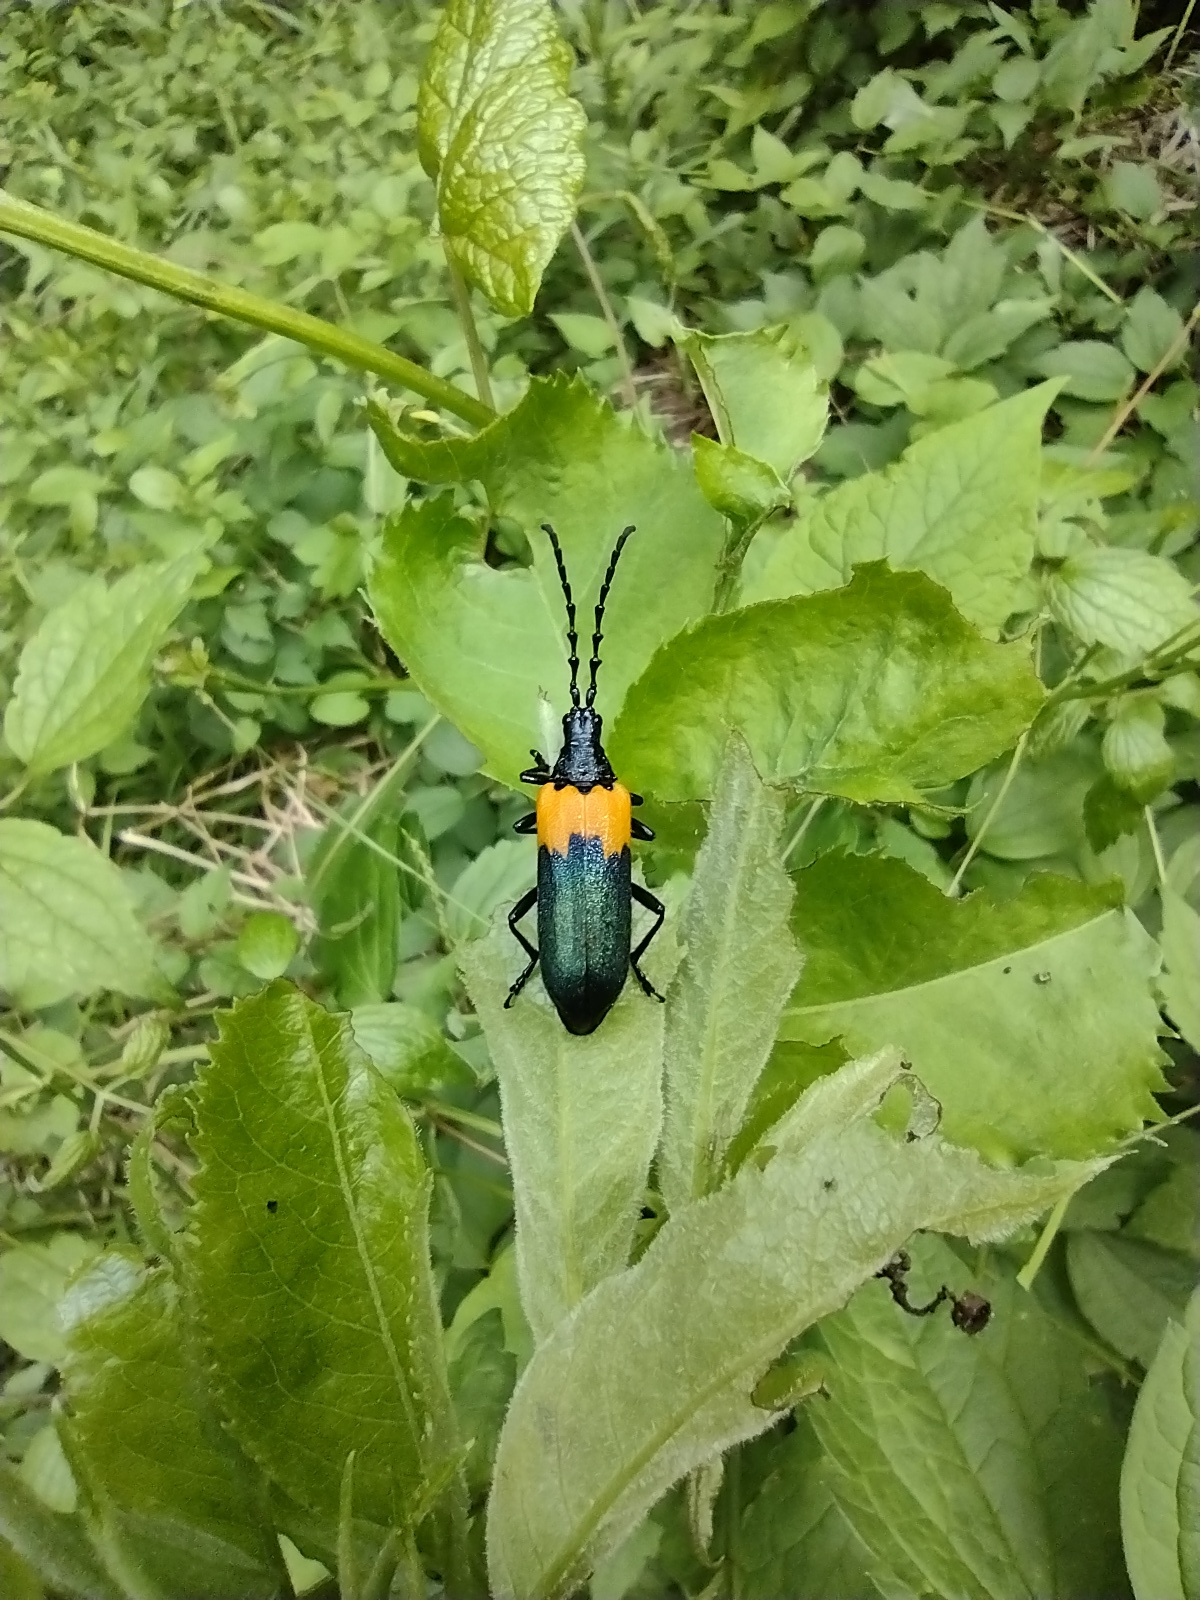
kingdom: Animalia
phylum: Arthropoda
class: Insecta
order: Coleoptera
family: Cerambycidae
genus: Desmocerus
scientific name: Desmocerus palliatus
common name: Eastern elderberry borer
